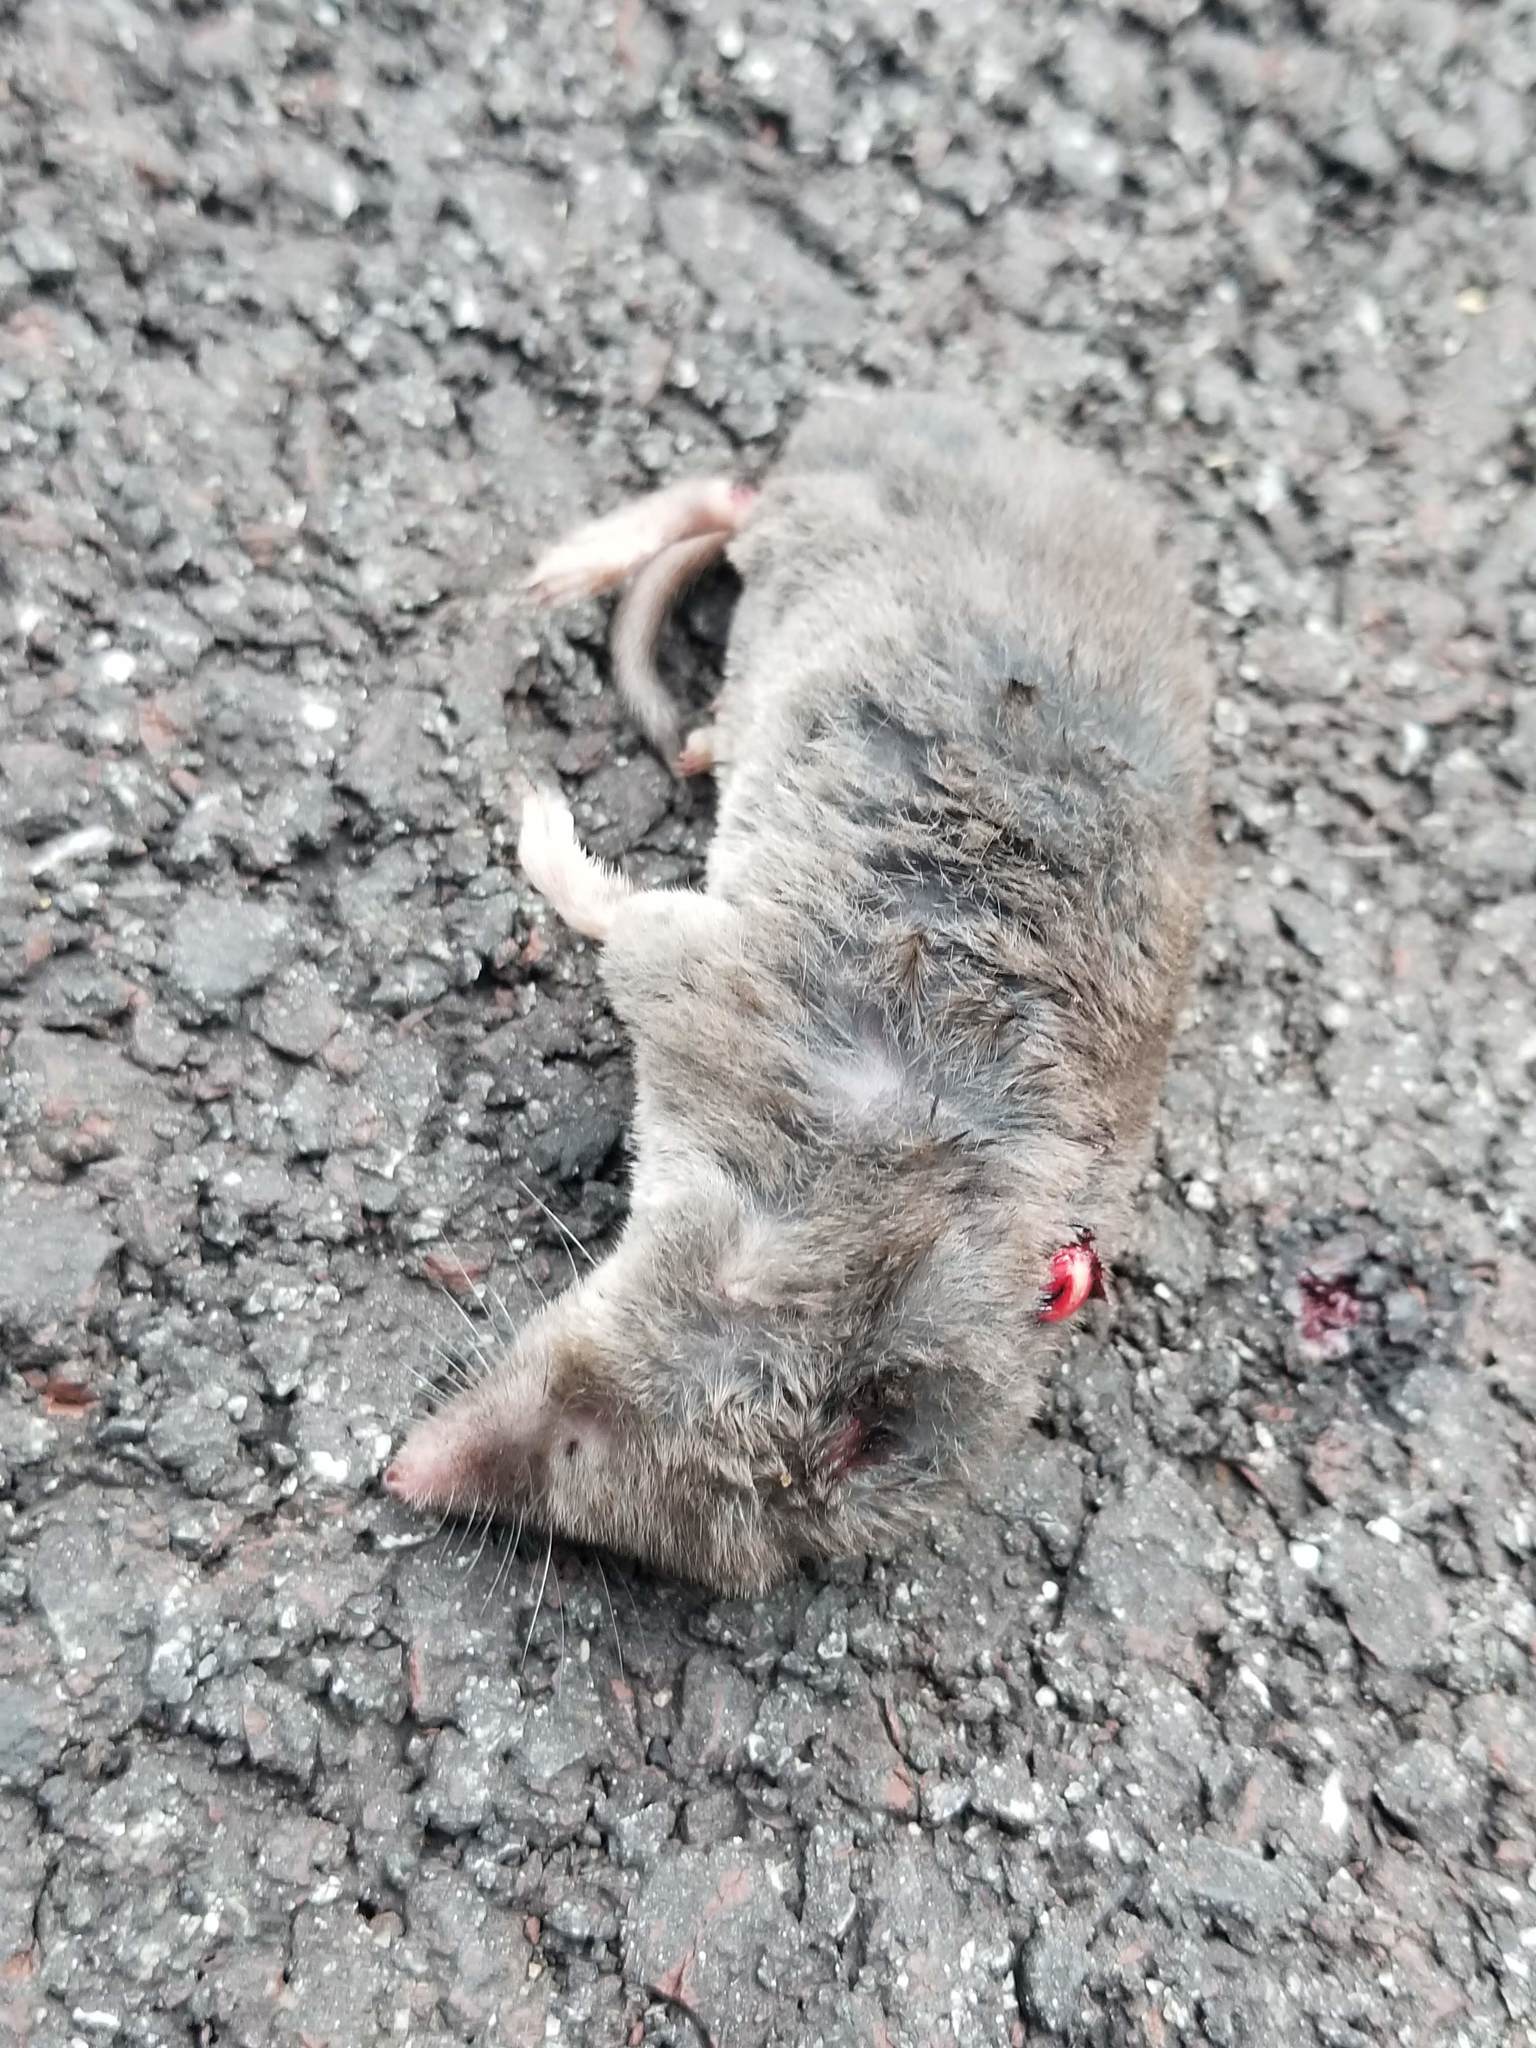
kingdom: Animalia
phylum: Chordata
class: Mammalia
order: Soricomorpha
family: Soricidae
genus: Blarina
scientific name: Blarina brevicauda
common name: Northern short-tailed shrew
